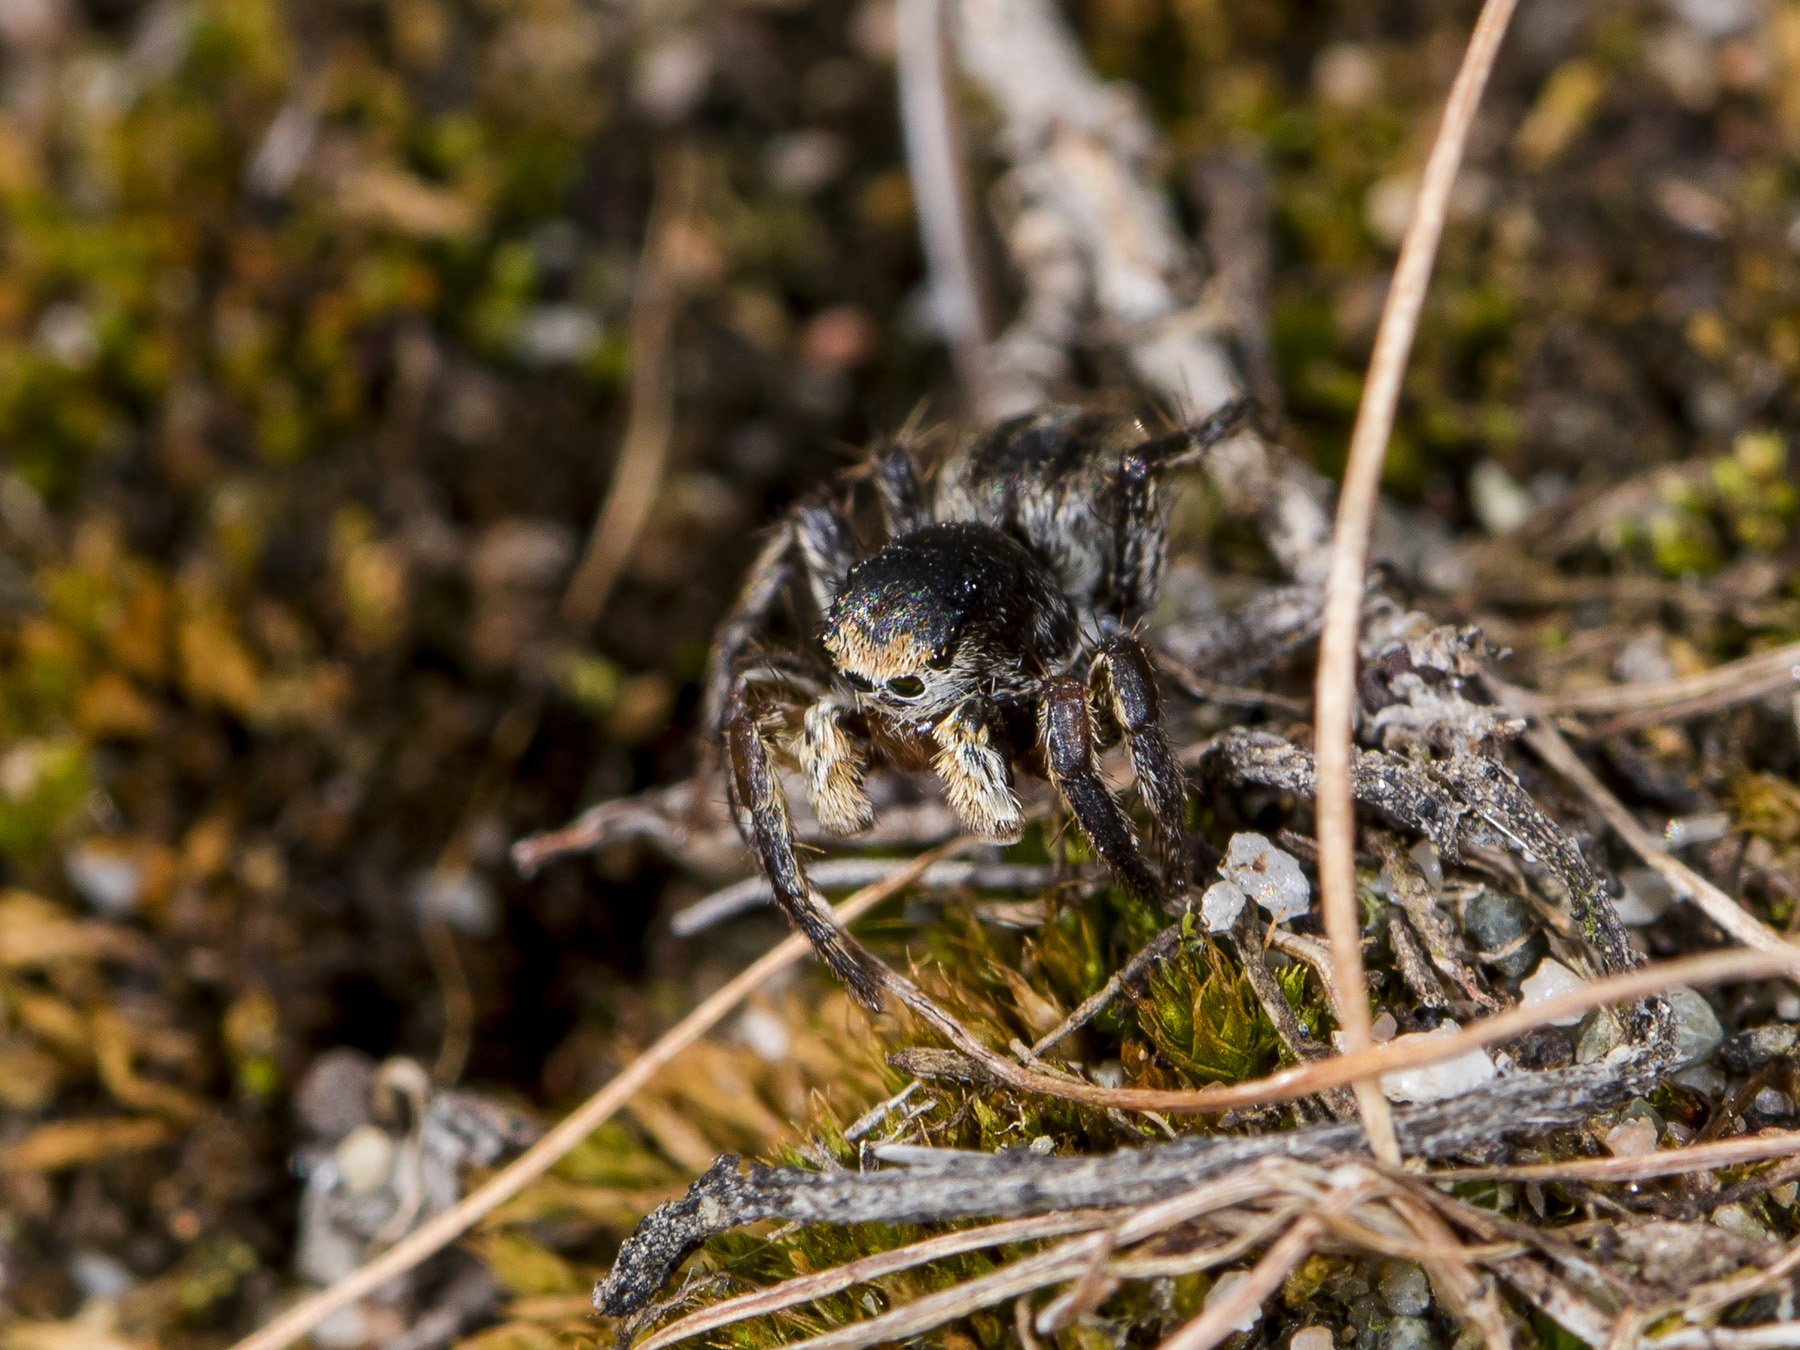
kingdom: Animalia
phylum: Arthropoda
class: Arachnida
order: Araneae
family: Salticidae
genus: Aelurillus
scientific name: Aelurillus v-insignitus
